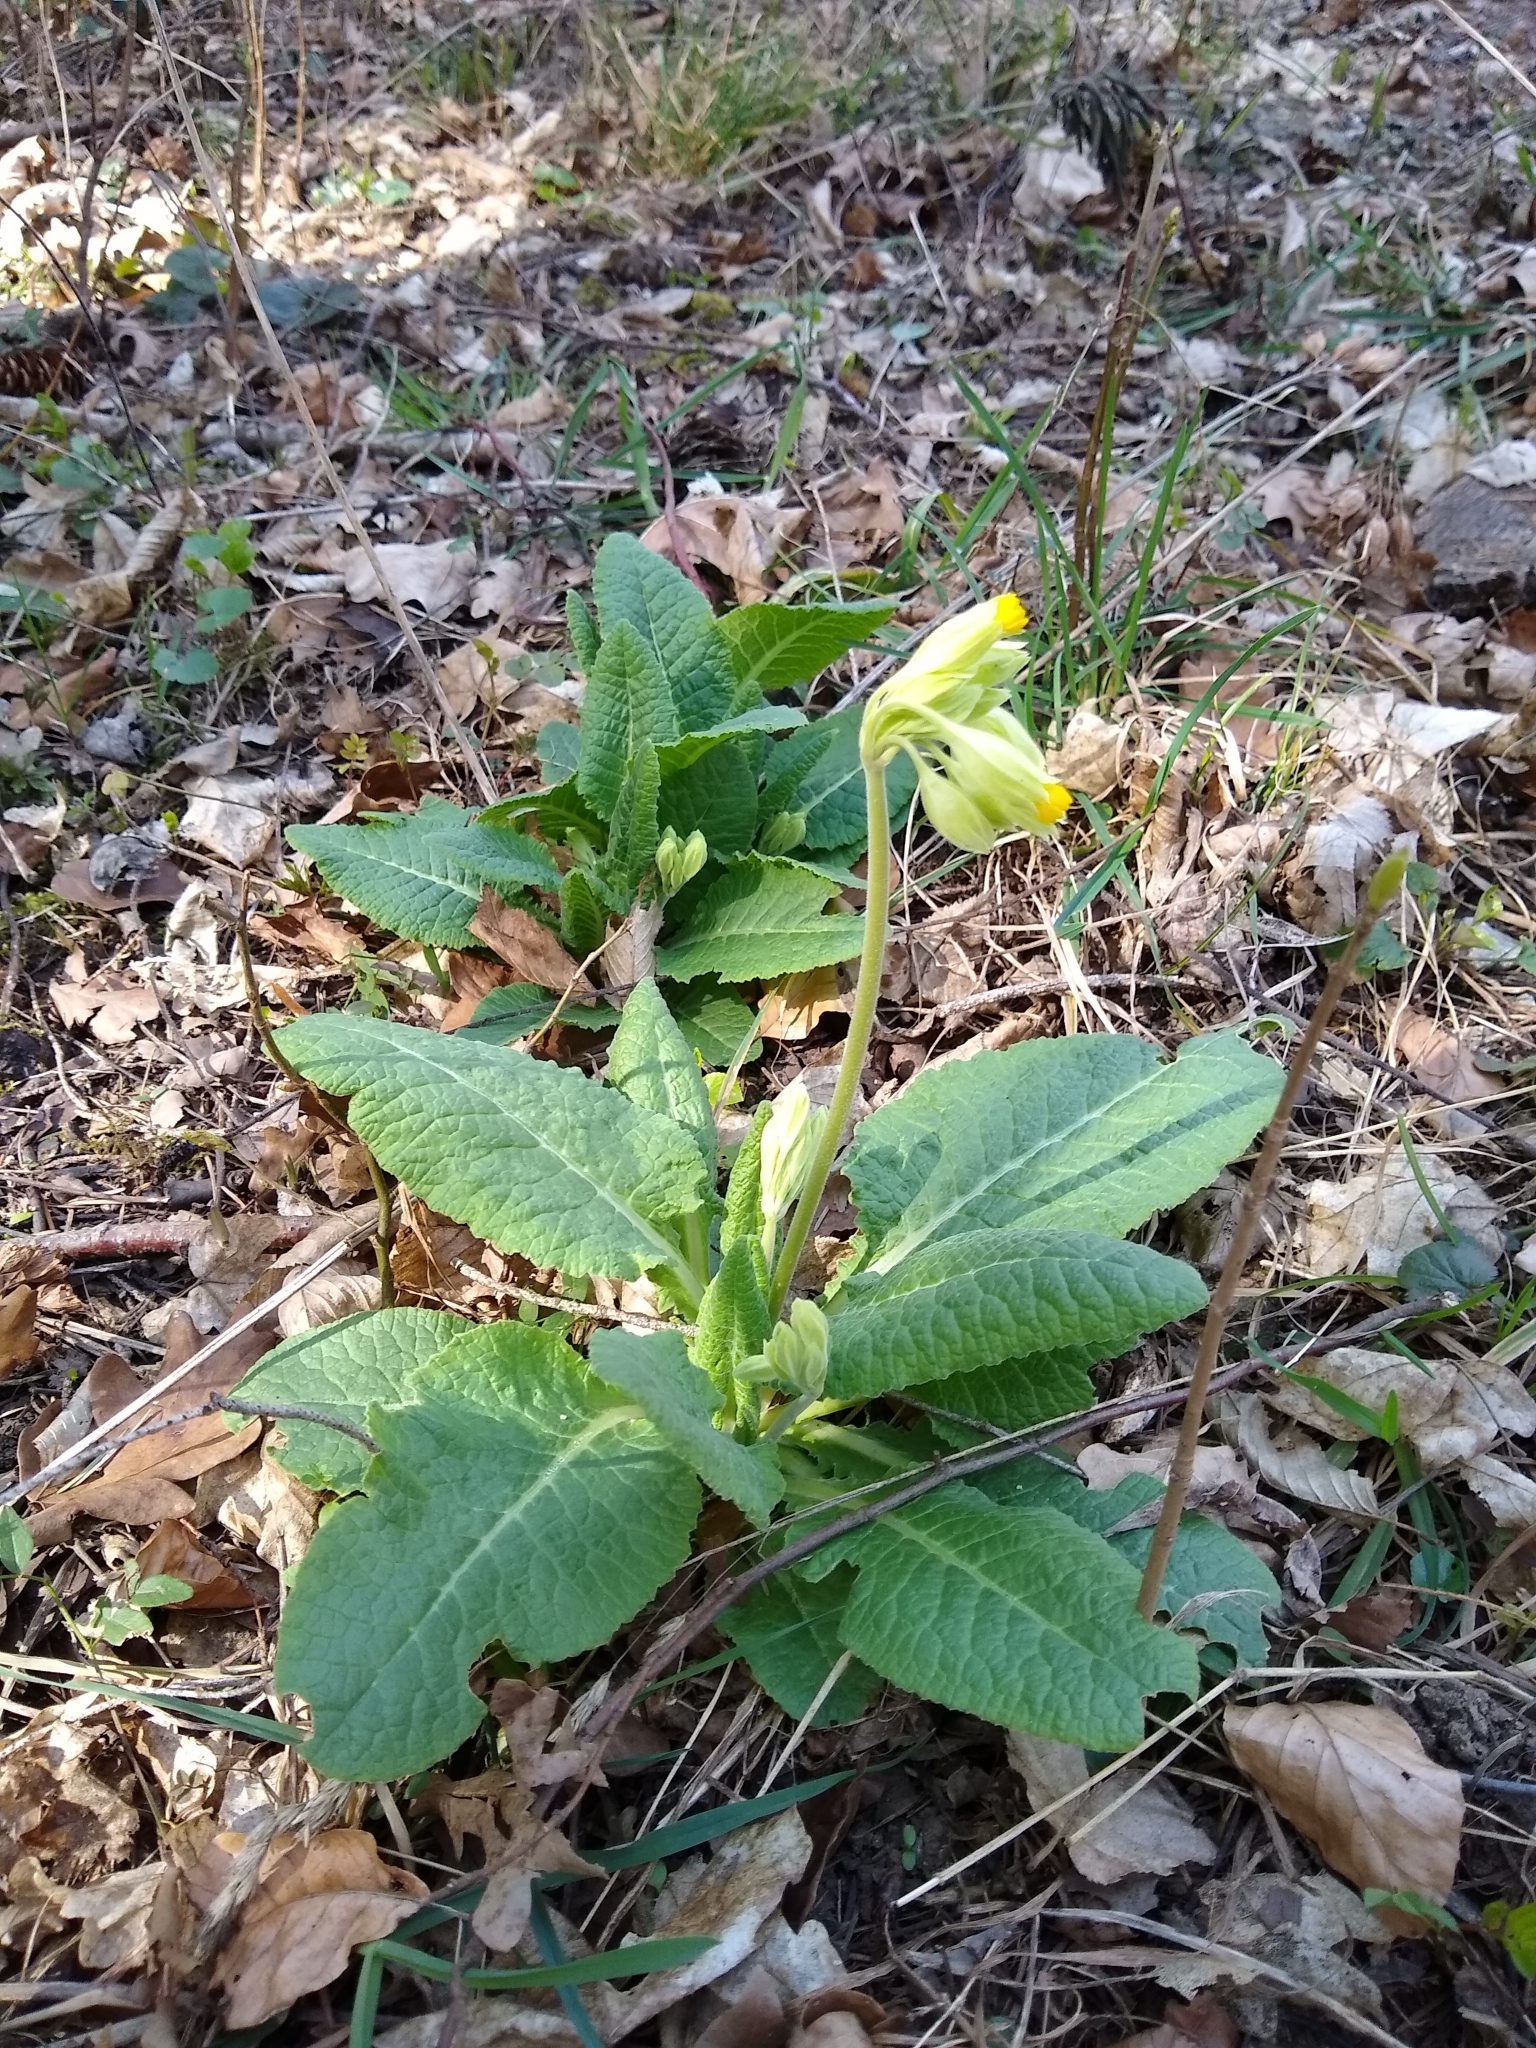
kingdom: Plantae
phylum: Tracheophyta
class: Magnoliopsida
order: Ericales
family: Primulaceae
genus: Primula
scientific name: Primula veris
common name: Cowslip
